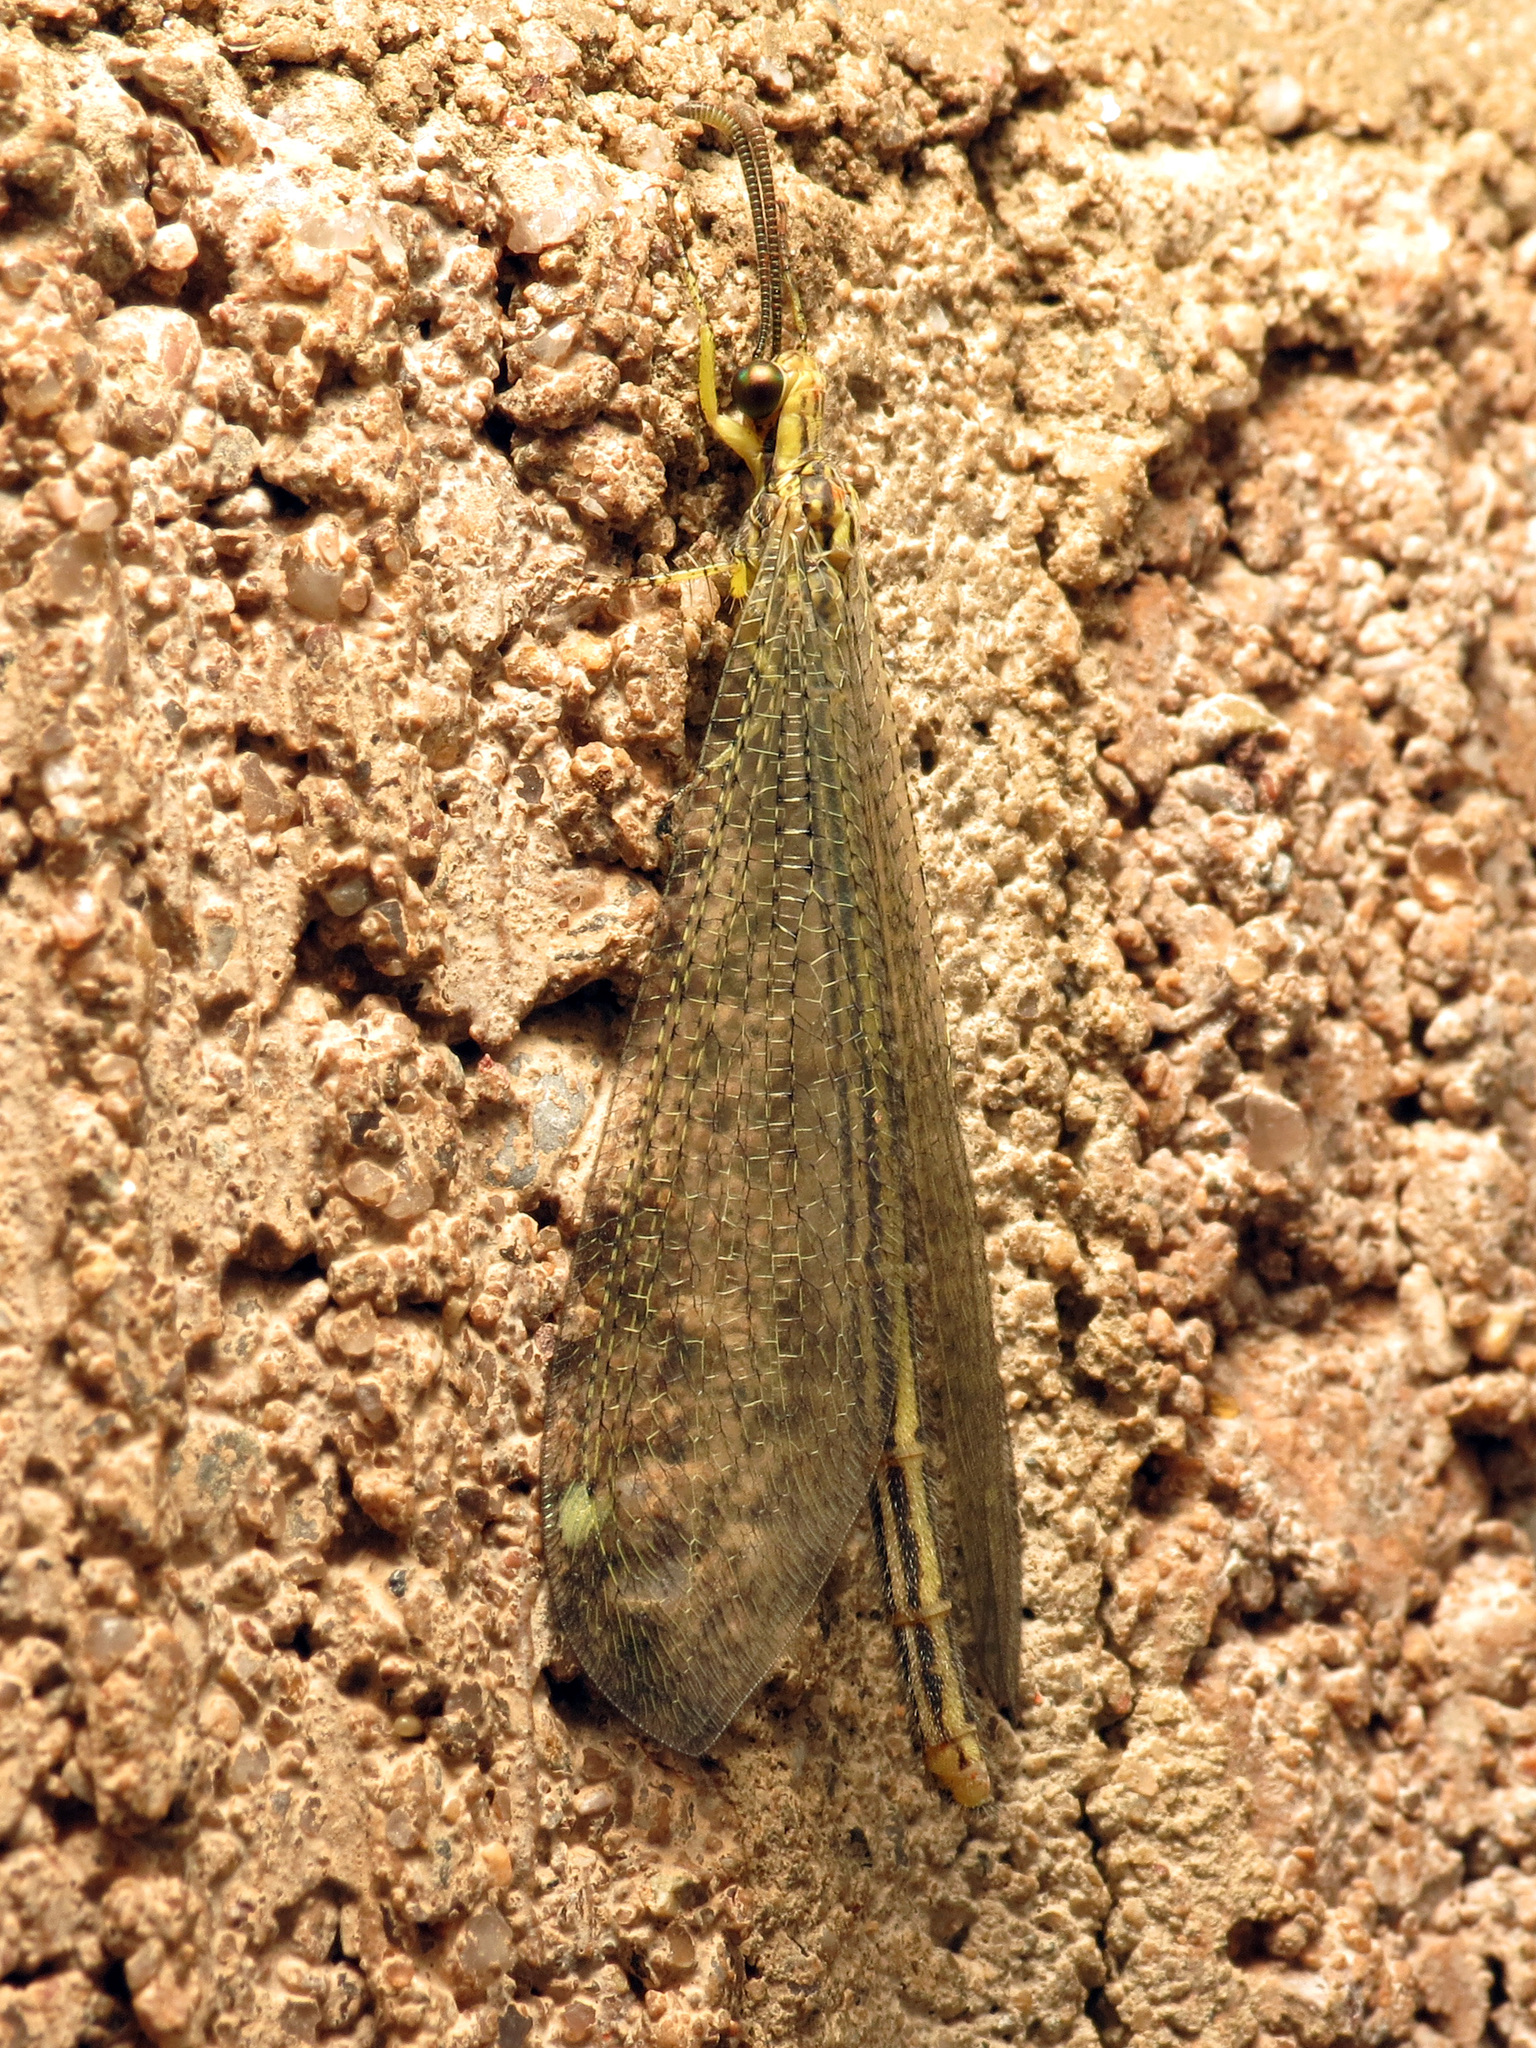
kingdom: Animalia
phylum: Arthropoda
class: Insecta
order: Neuroptera
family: Myrmeleontidae
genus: Brachynemurus
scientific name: Brachynemurus hubbardii
